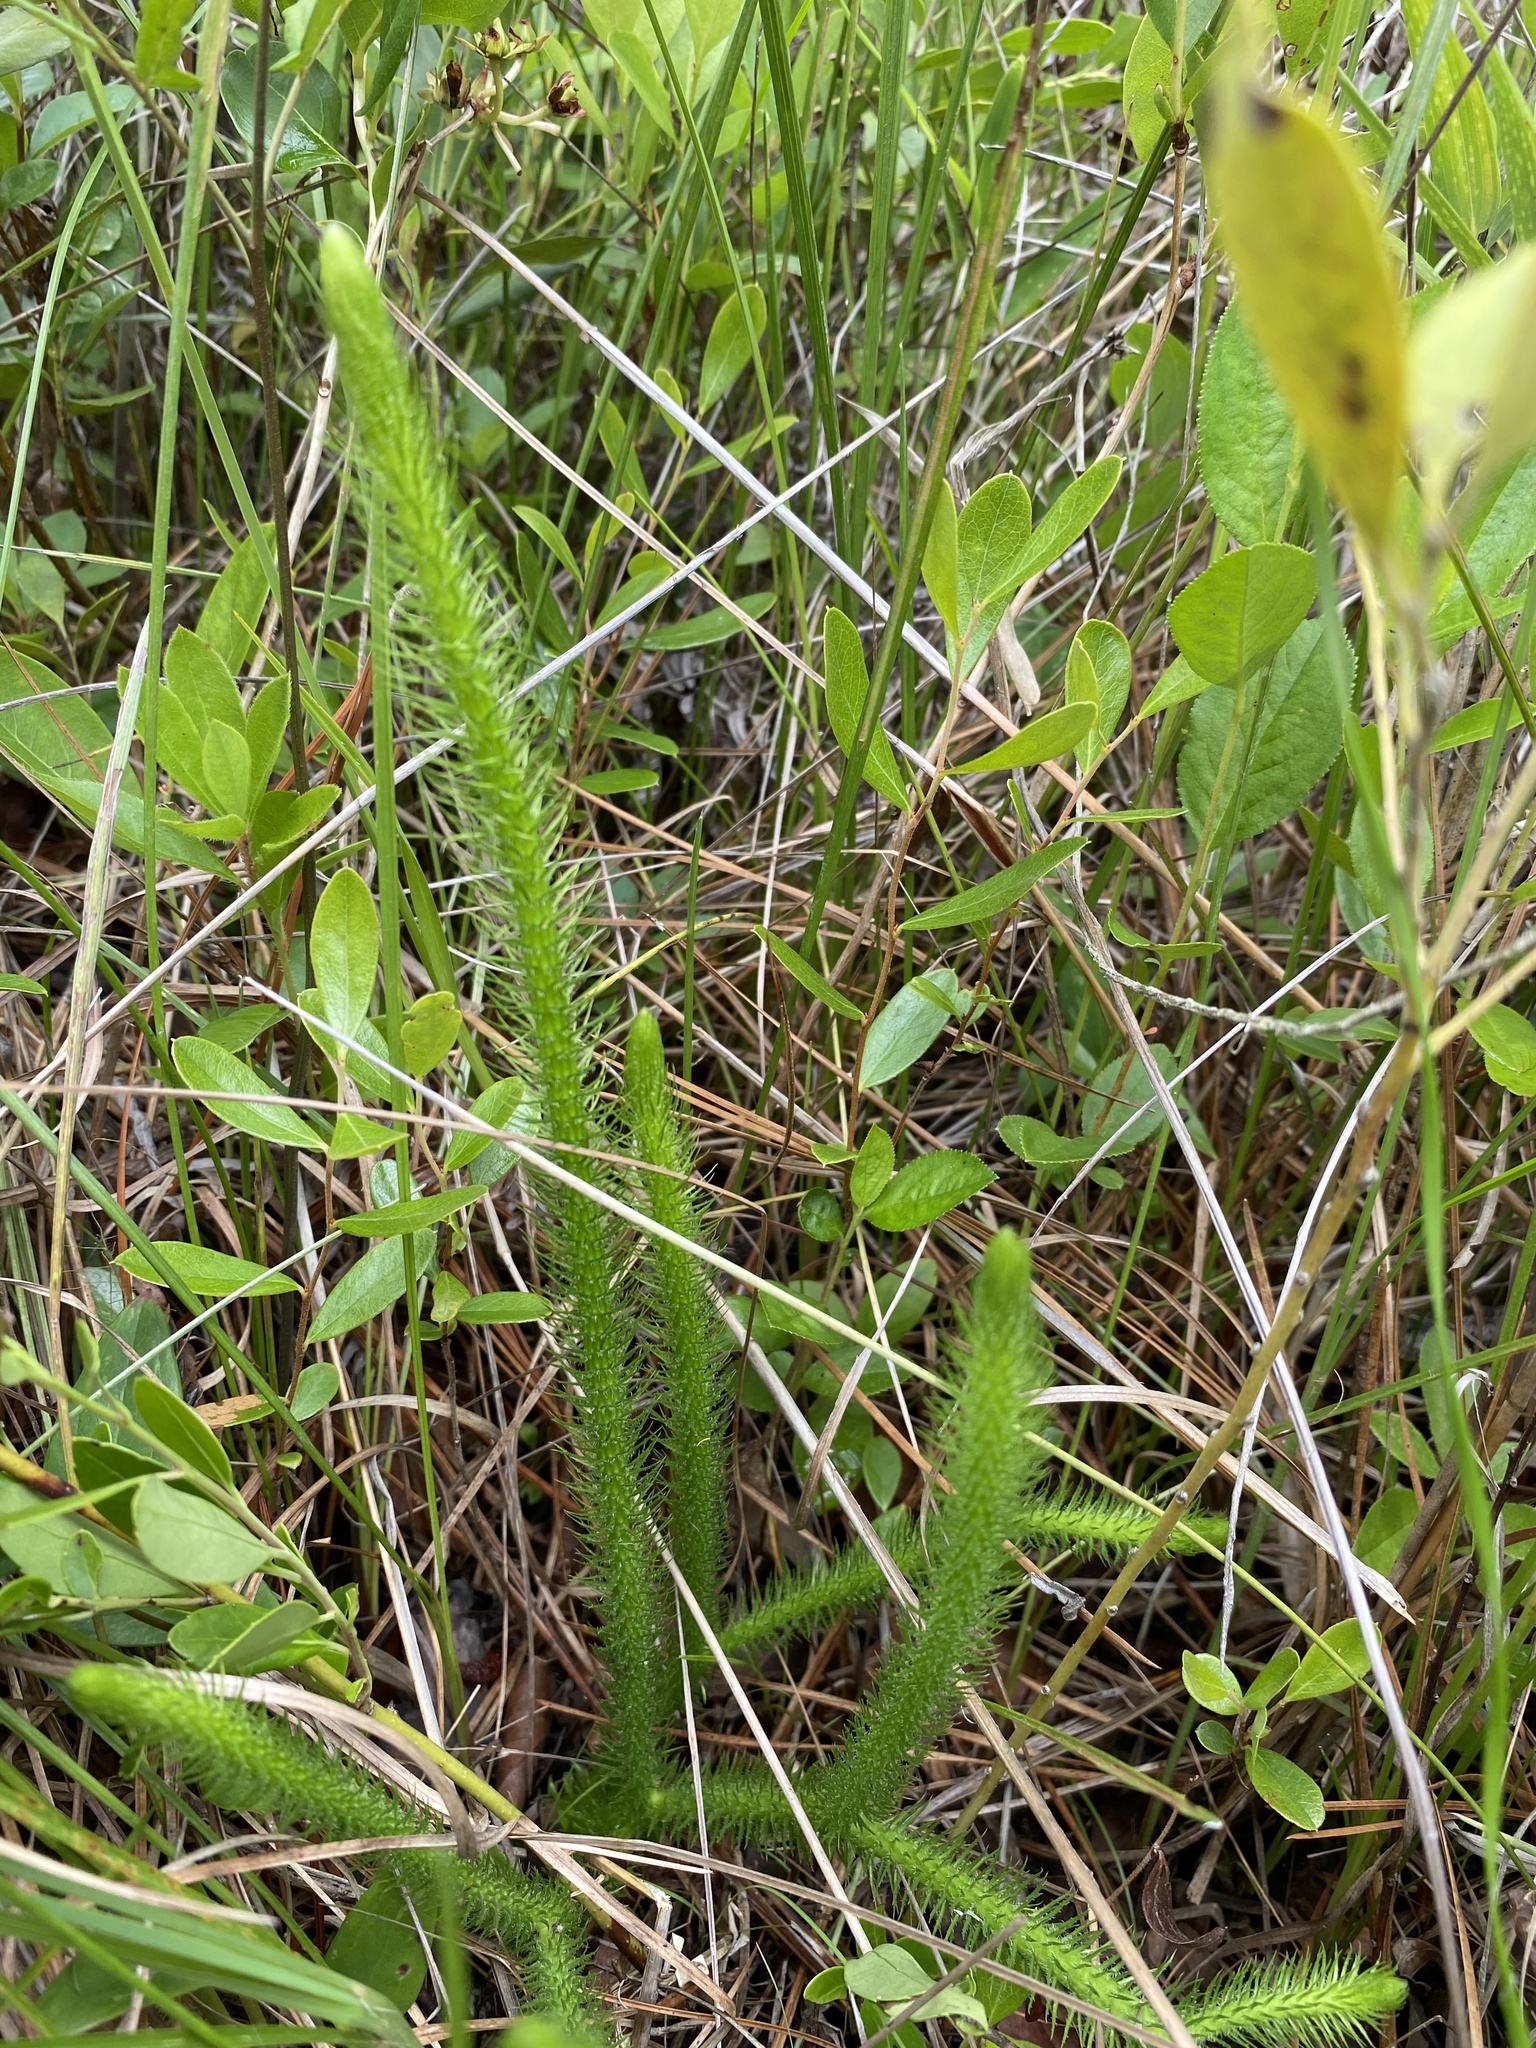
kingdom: Plantae
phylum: Tracheophyta
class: Lycopodiopsida
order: Lycopodiales
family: Lycopodiaceae
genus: Lycopodiella
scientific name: Lycopodiella alopecuroides
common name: Foxtail clubmoss
